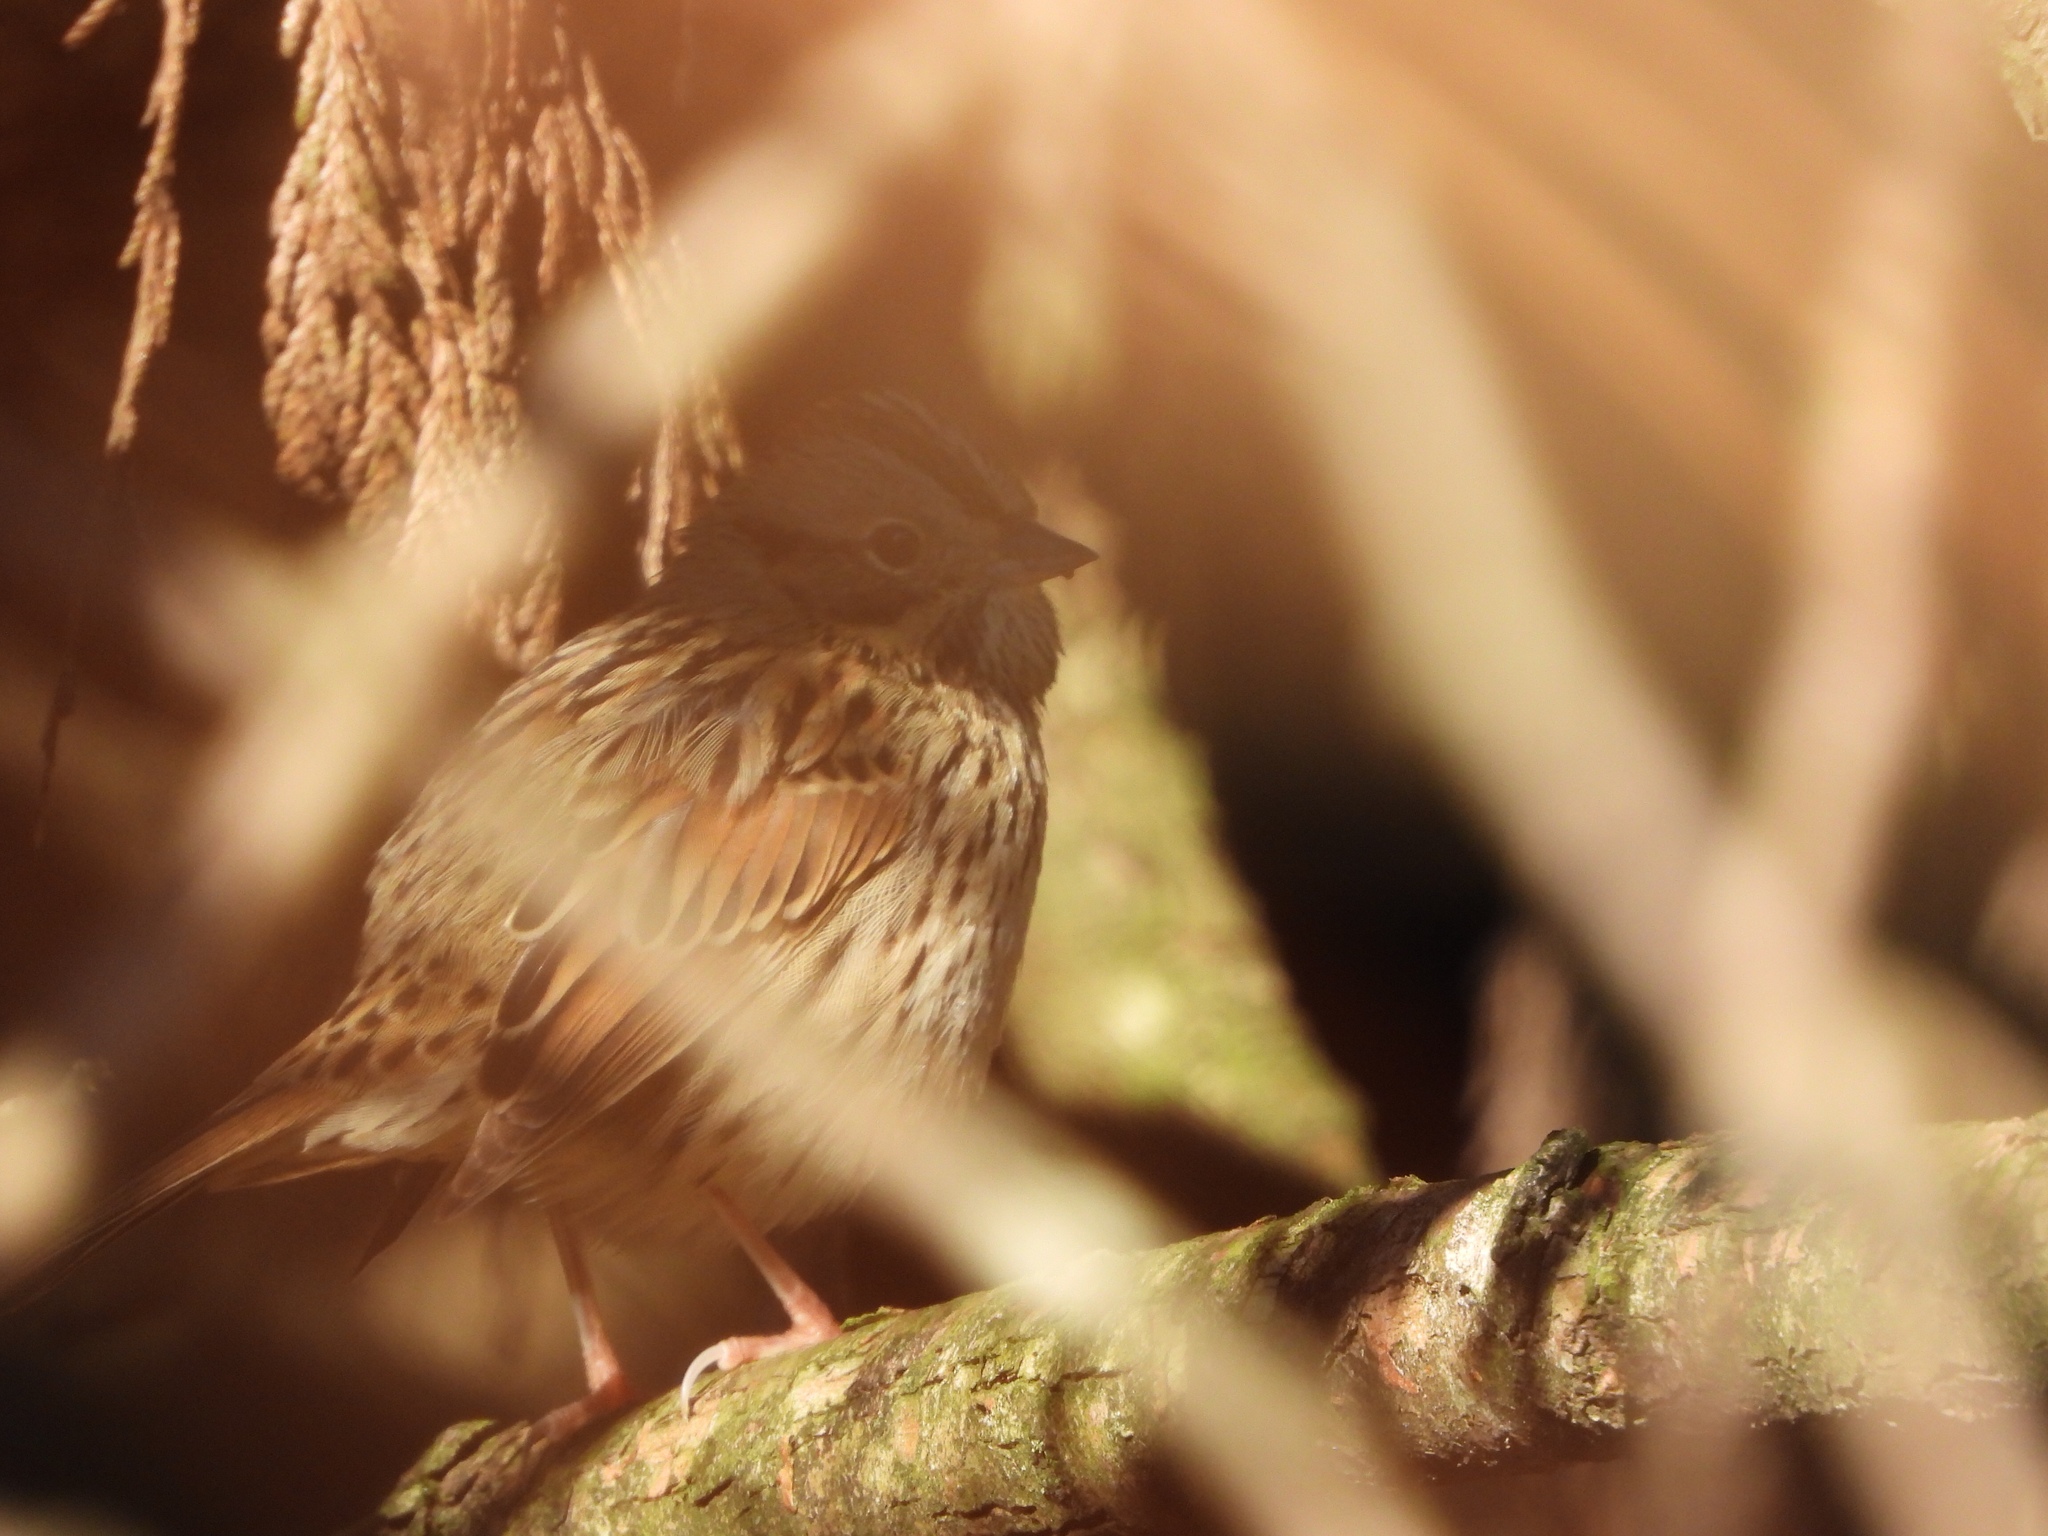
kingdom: Animalia
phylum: Chordata
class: Aves
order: Passeriformes
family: Passerellidae
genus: Melospiza
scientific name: Melospiza lincolnii
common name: Lincoln's sparrow
